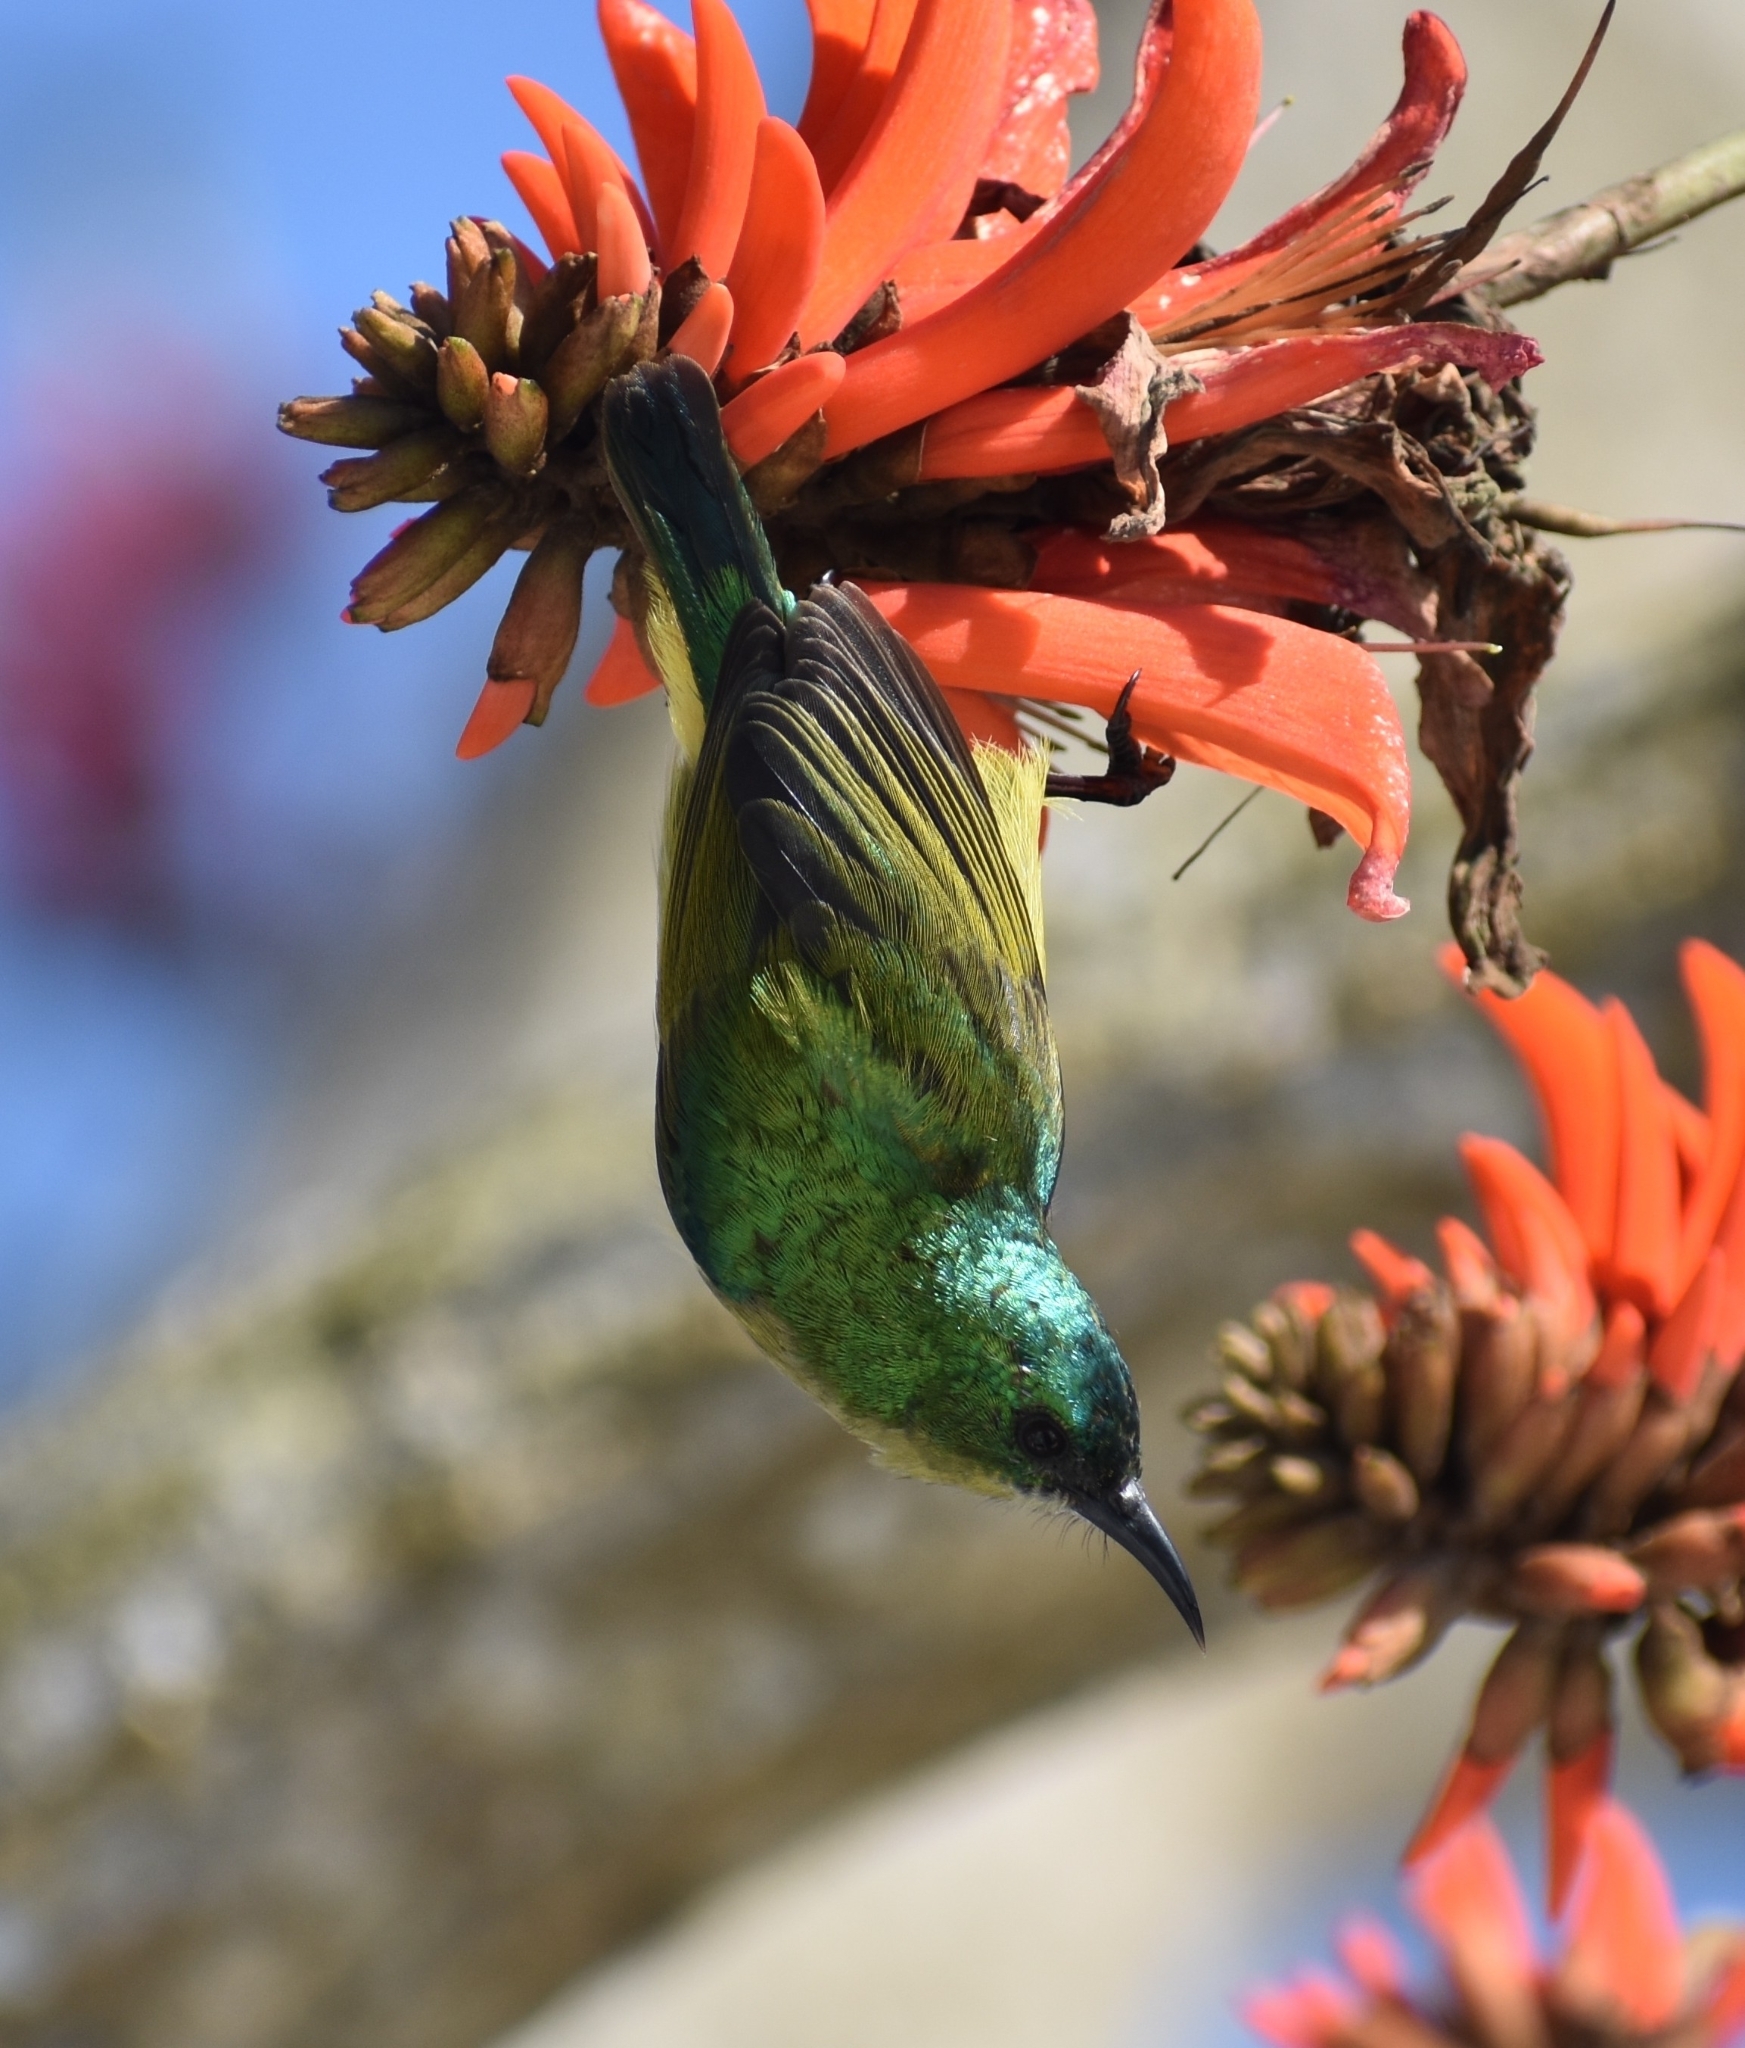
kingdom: Animalia
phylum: Chordata
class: Aves
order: Passeriformes
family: Nectariniidae
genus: Hedydipna
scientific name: Hedydipna collaris
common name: Collared sunbird
